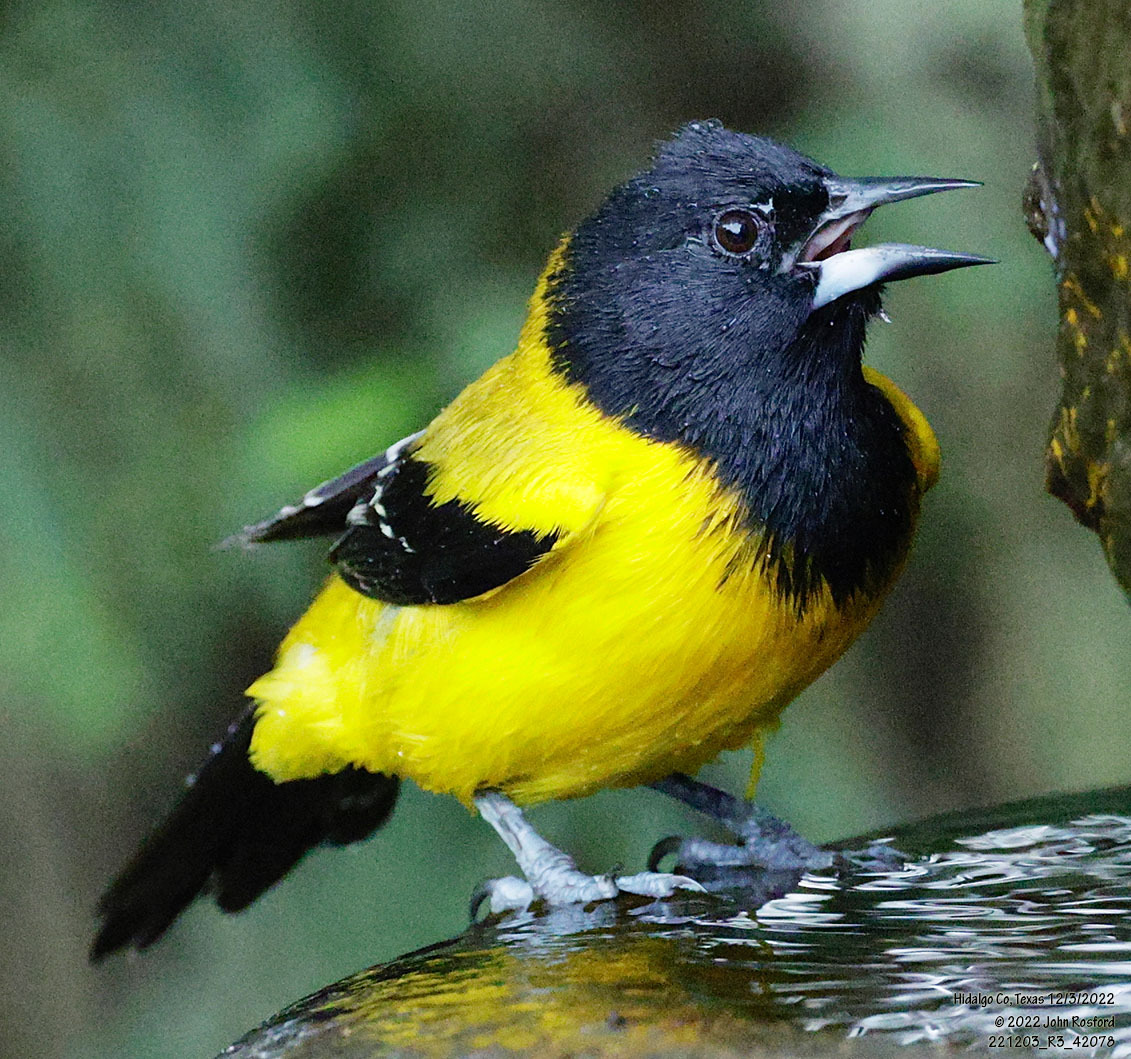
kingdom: Animalia
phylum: Chordata
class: Aves
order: Passeriformes
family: Icteridae
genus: Icterus
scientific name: Icterus graduacauda
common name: Audubon's oriole
